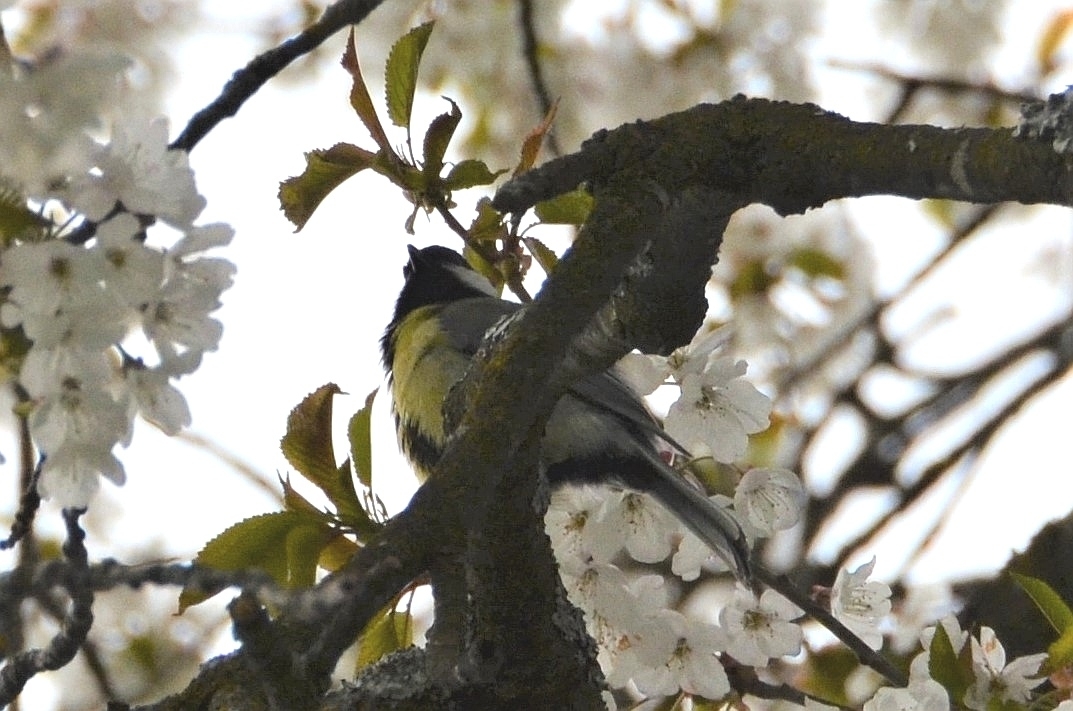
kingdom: Animalia
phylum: Chordata
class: Aves
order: Passeriformes
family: Paridae
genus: Parus
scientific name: Parus major
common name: Great tit
